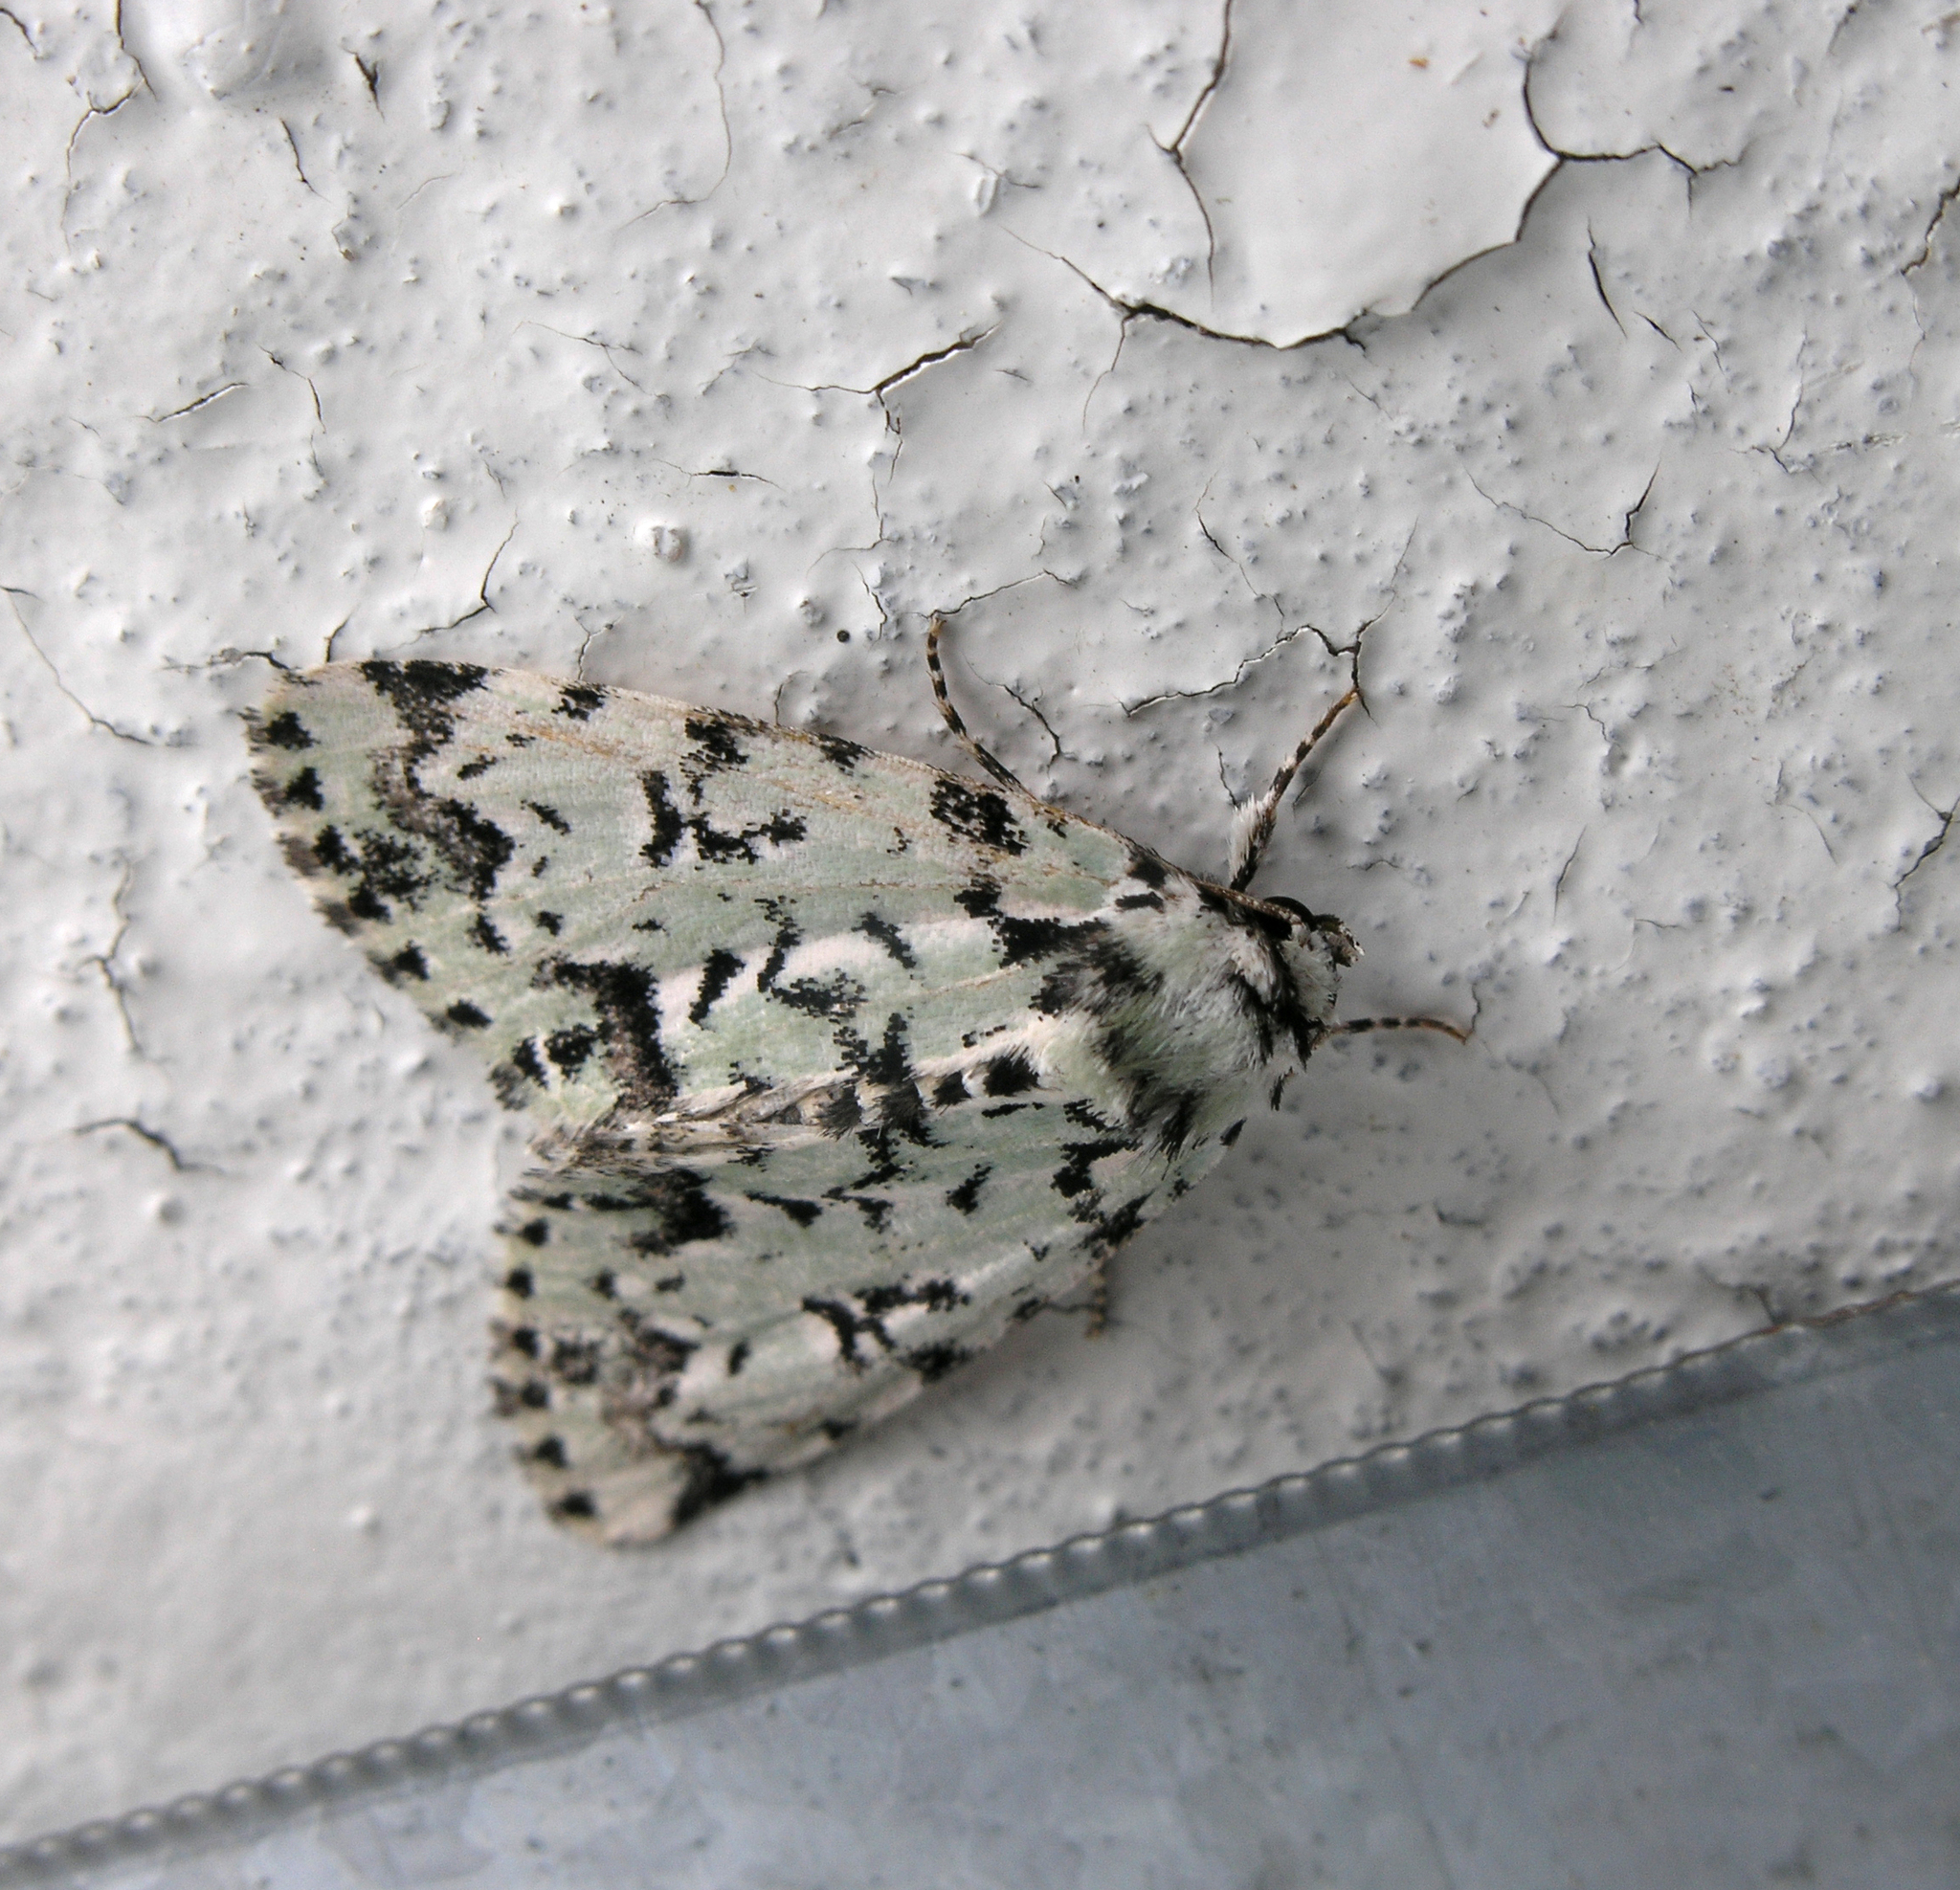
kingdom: Animalia
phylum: Arthropoda
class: Insecta
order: Lepidoptera
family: Noctuidae
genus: Moma
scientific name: Moma alpium
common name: Scarce merveille du jour
